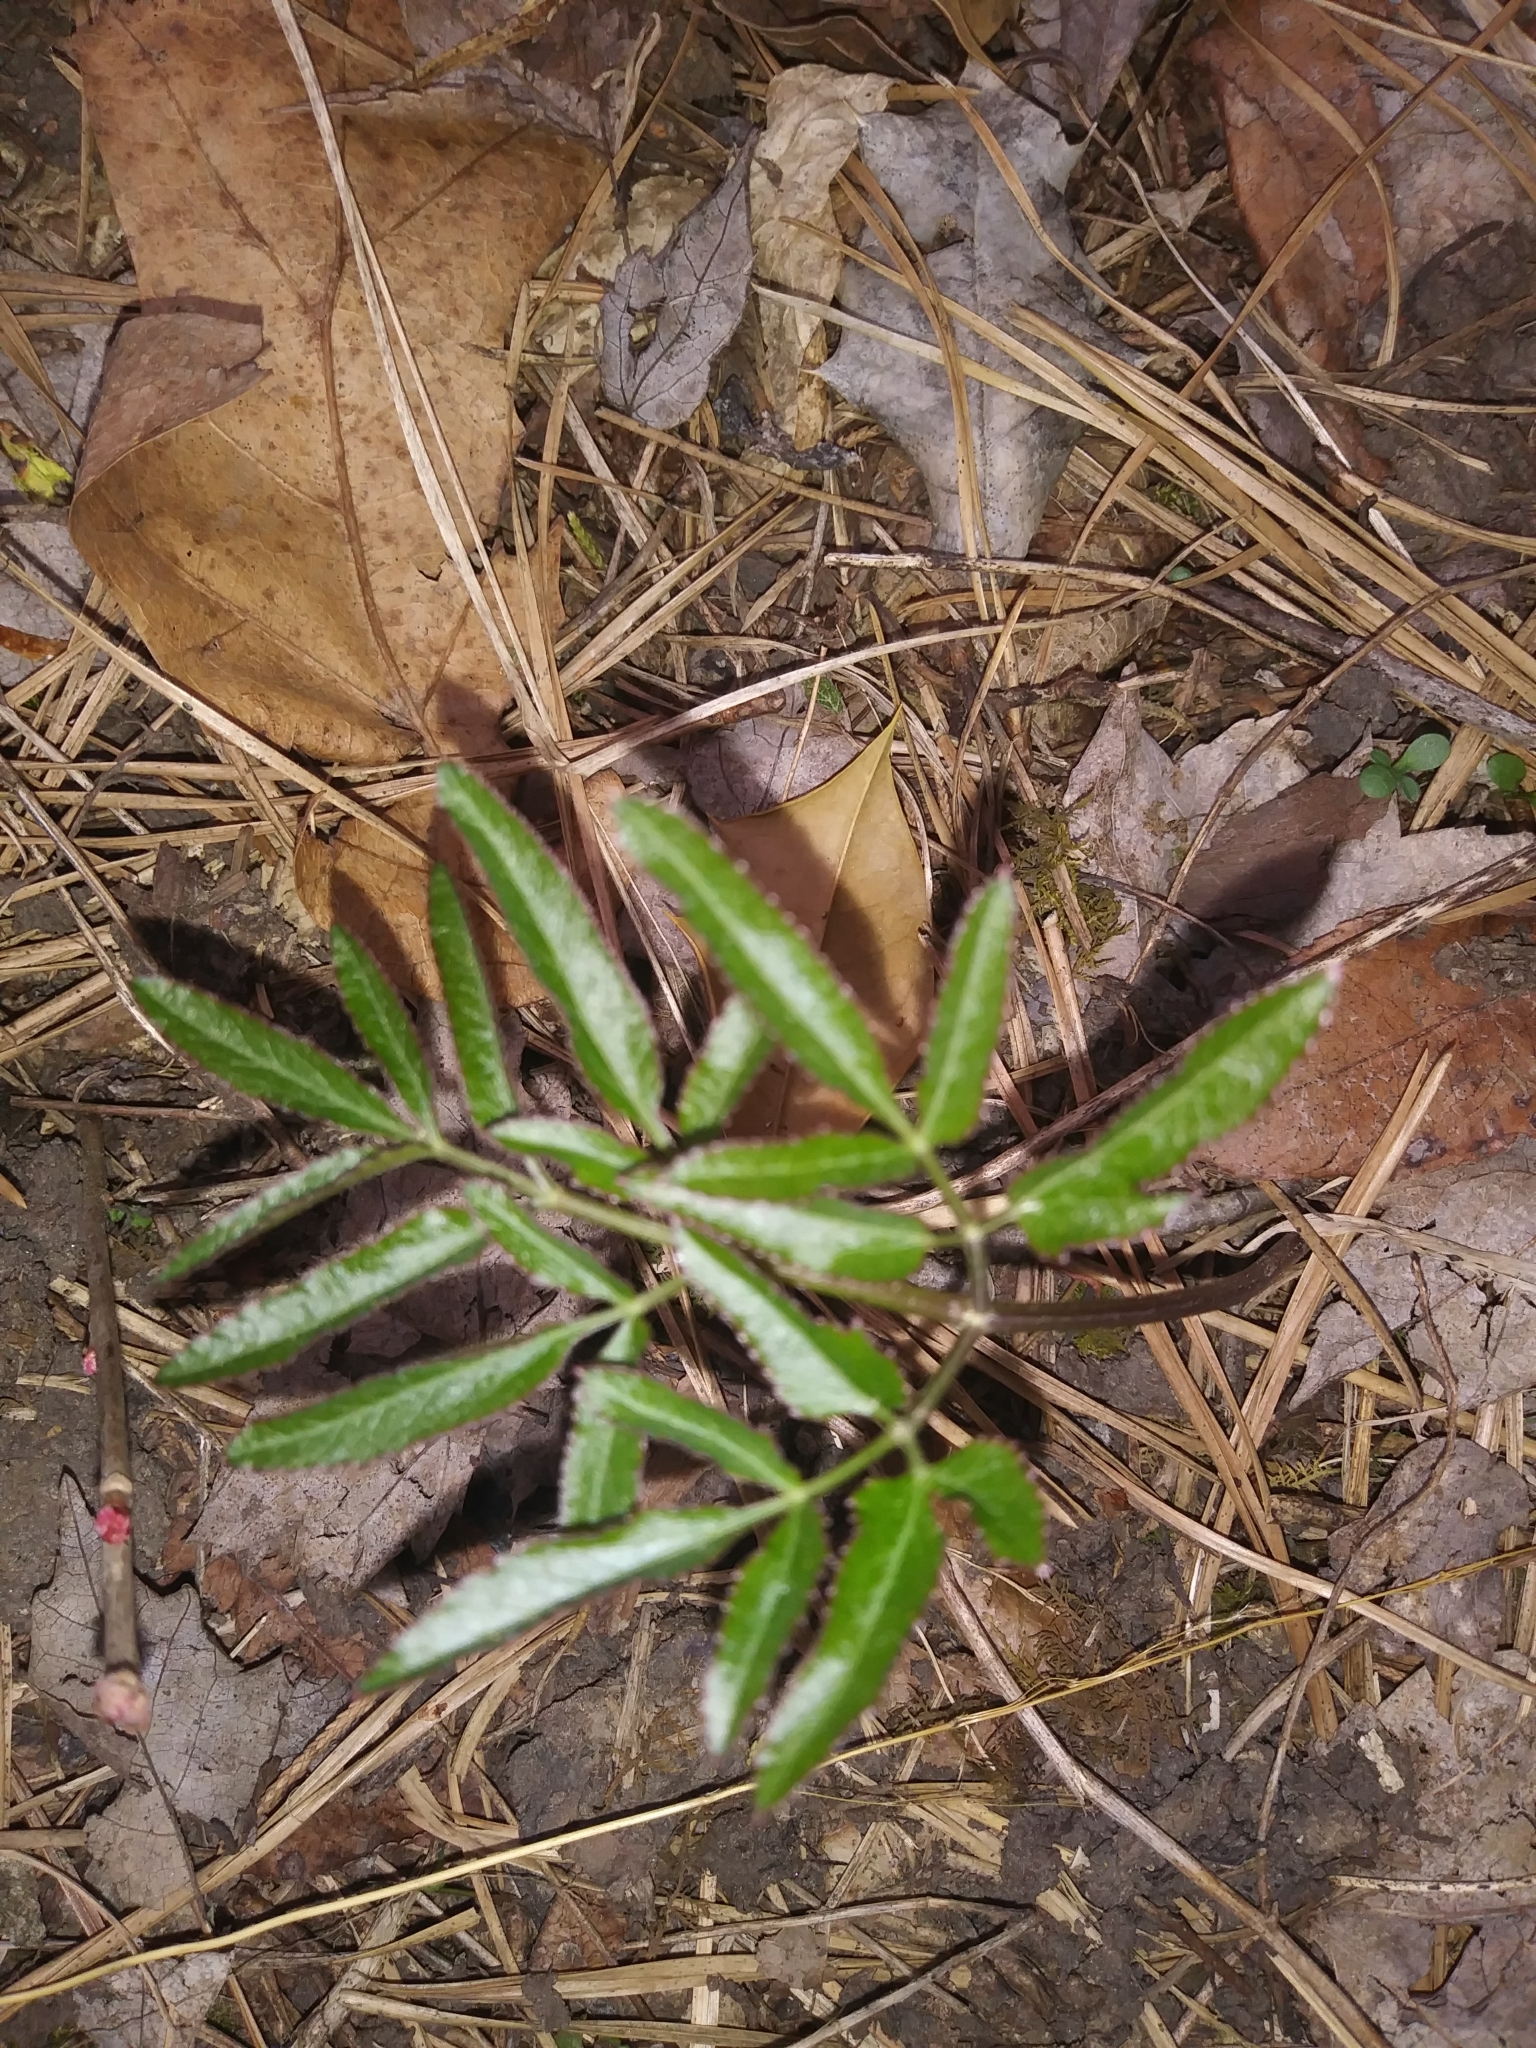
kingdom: Plantae
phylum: Tracheophyta
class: Magnoliopsida
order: Apiales
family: Apiaceae
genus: Angelica
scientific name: Angelica venenosa
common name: Hairy angelica
